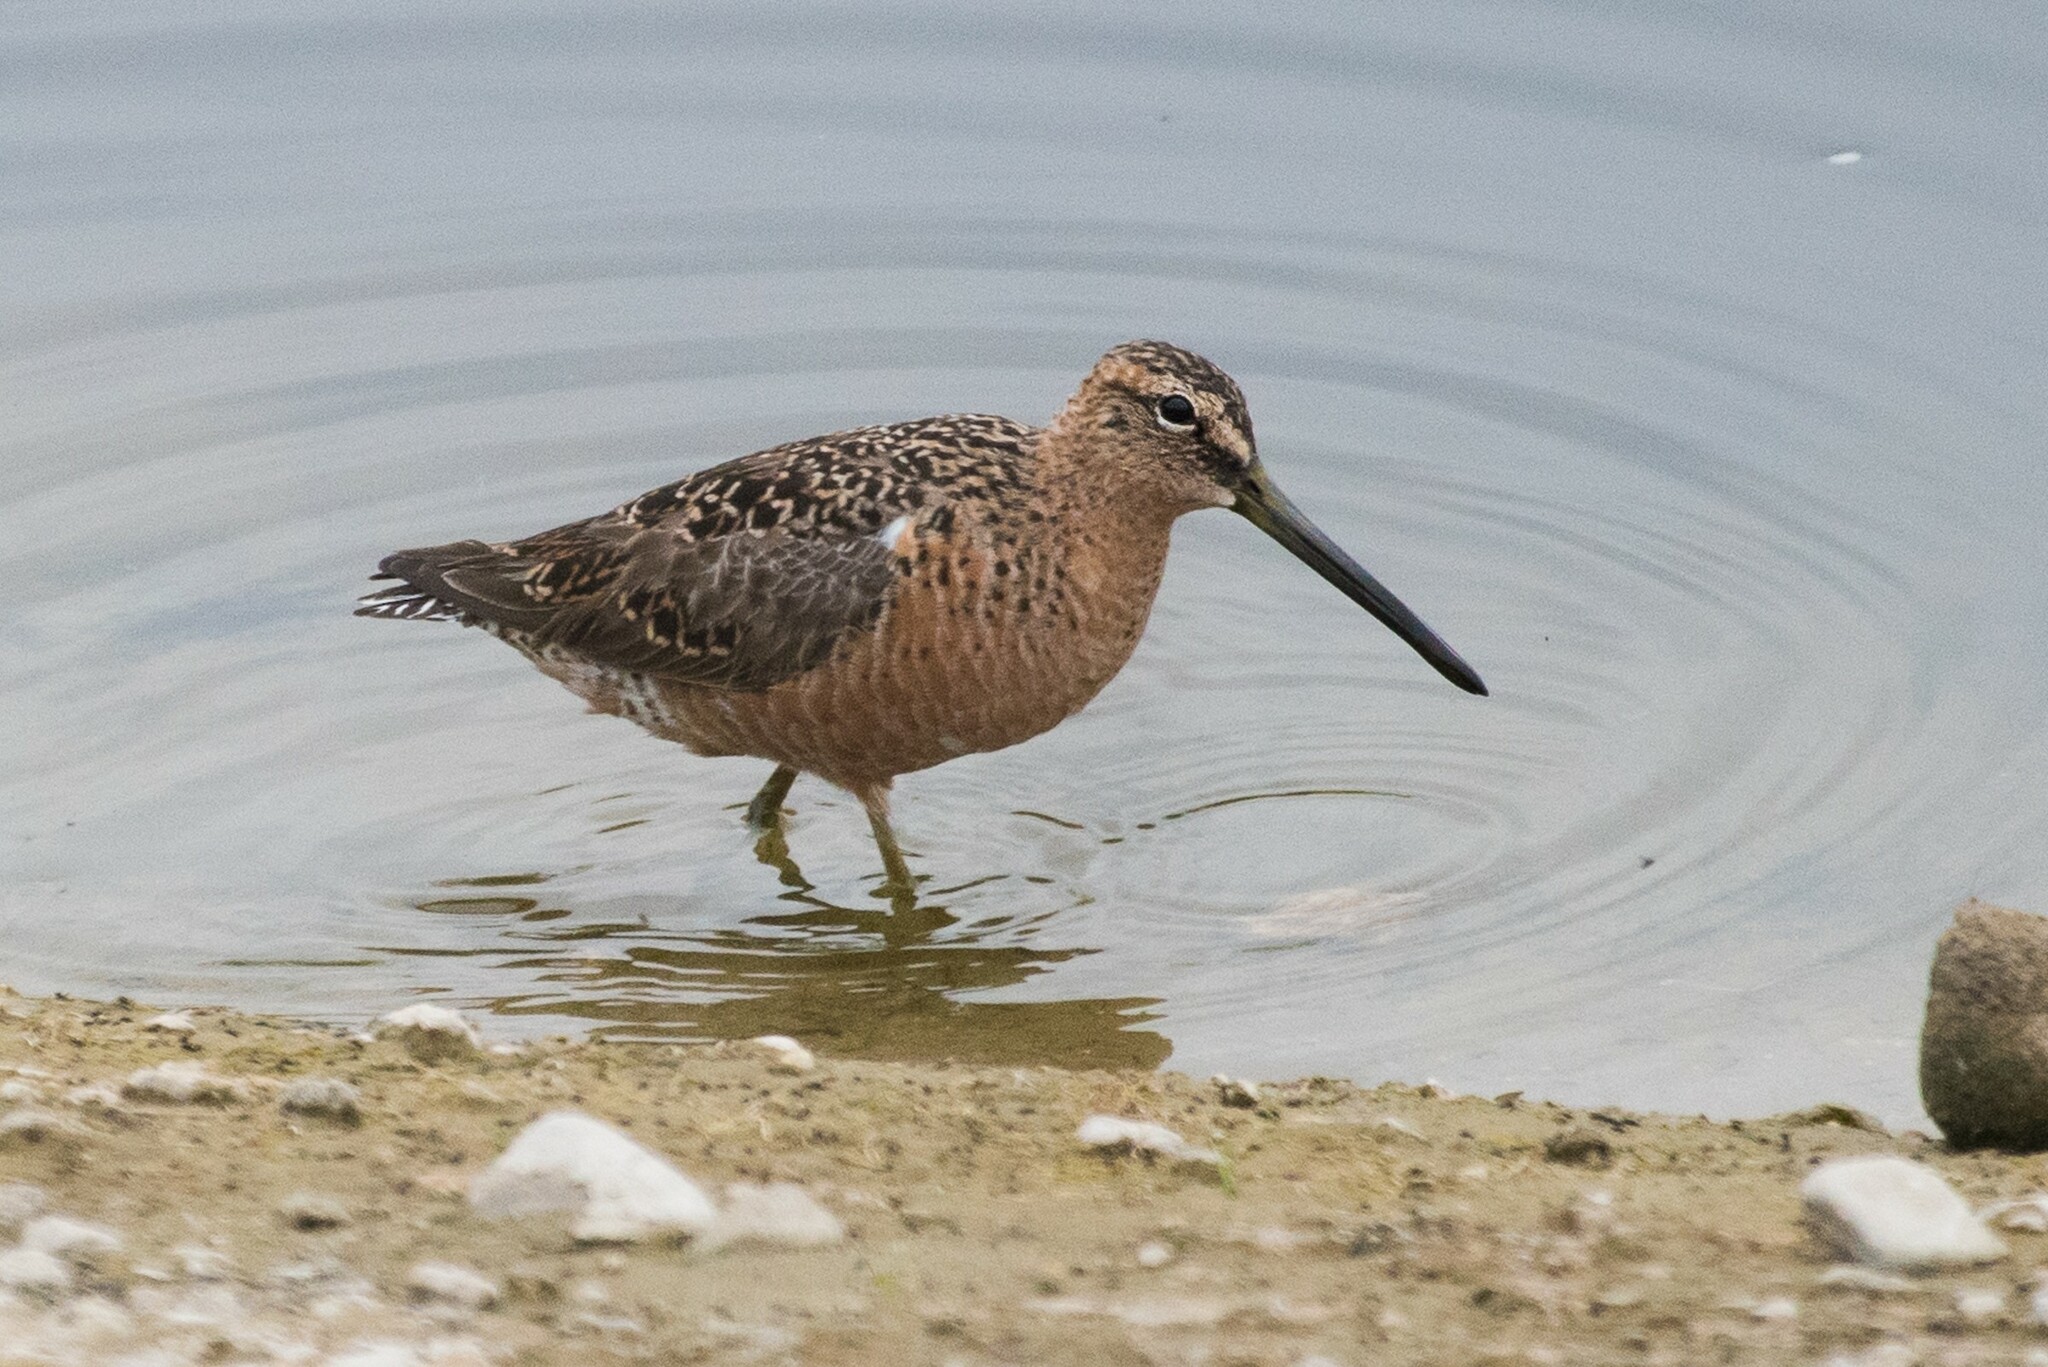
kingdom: Animalia
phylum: Chordata
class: Aves
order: Charadriiformes
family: Scolopacidae
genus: Limnodromus
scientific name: Limnodromus scolopaceus
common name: Long-billed dowitcher
